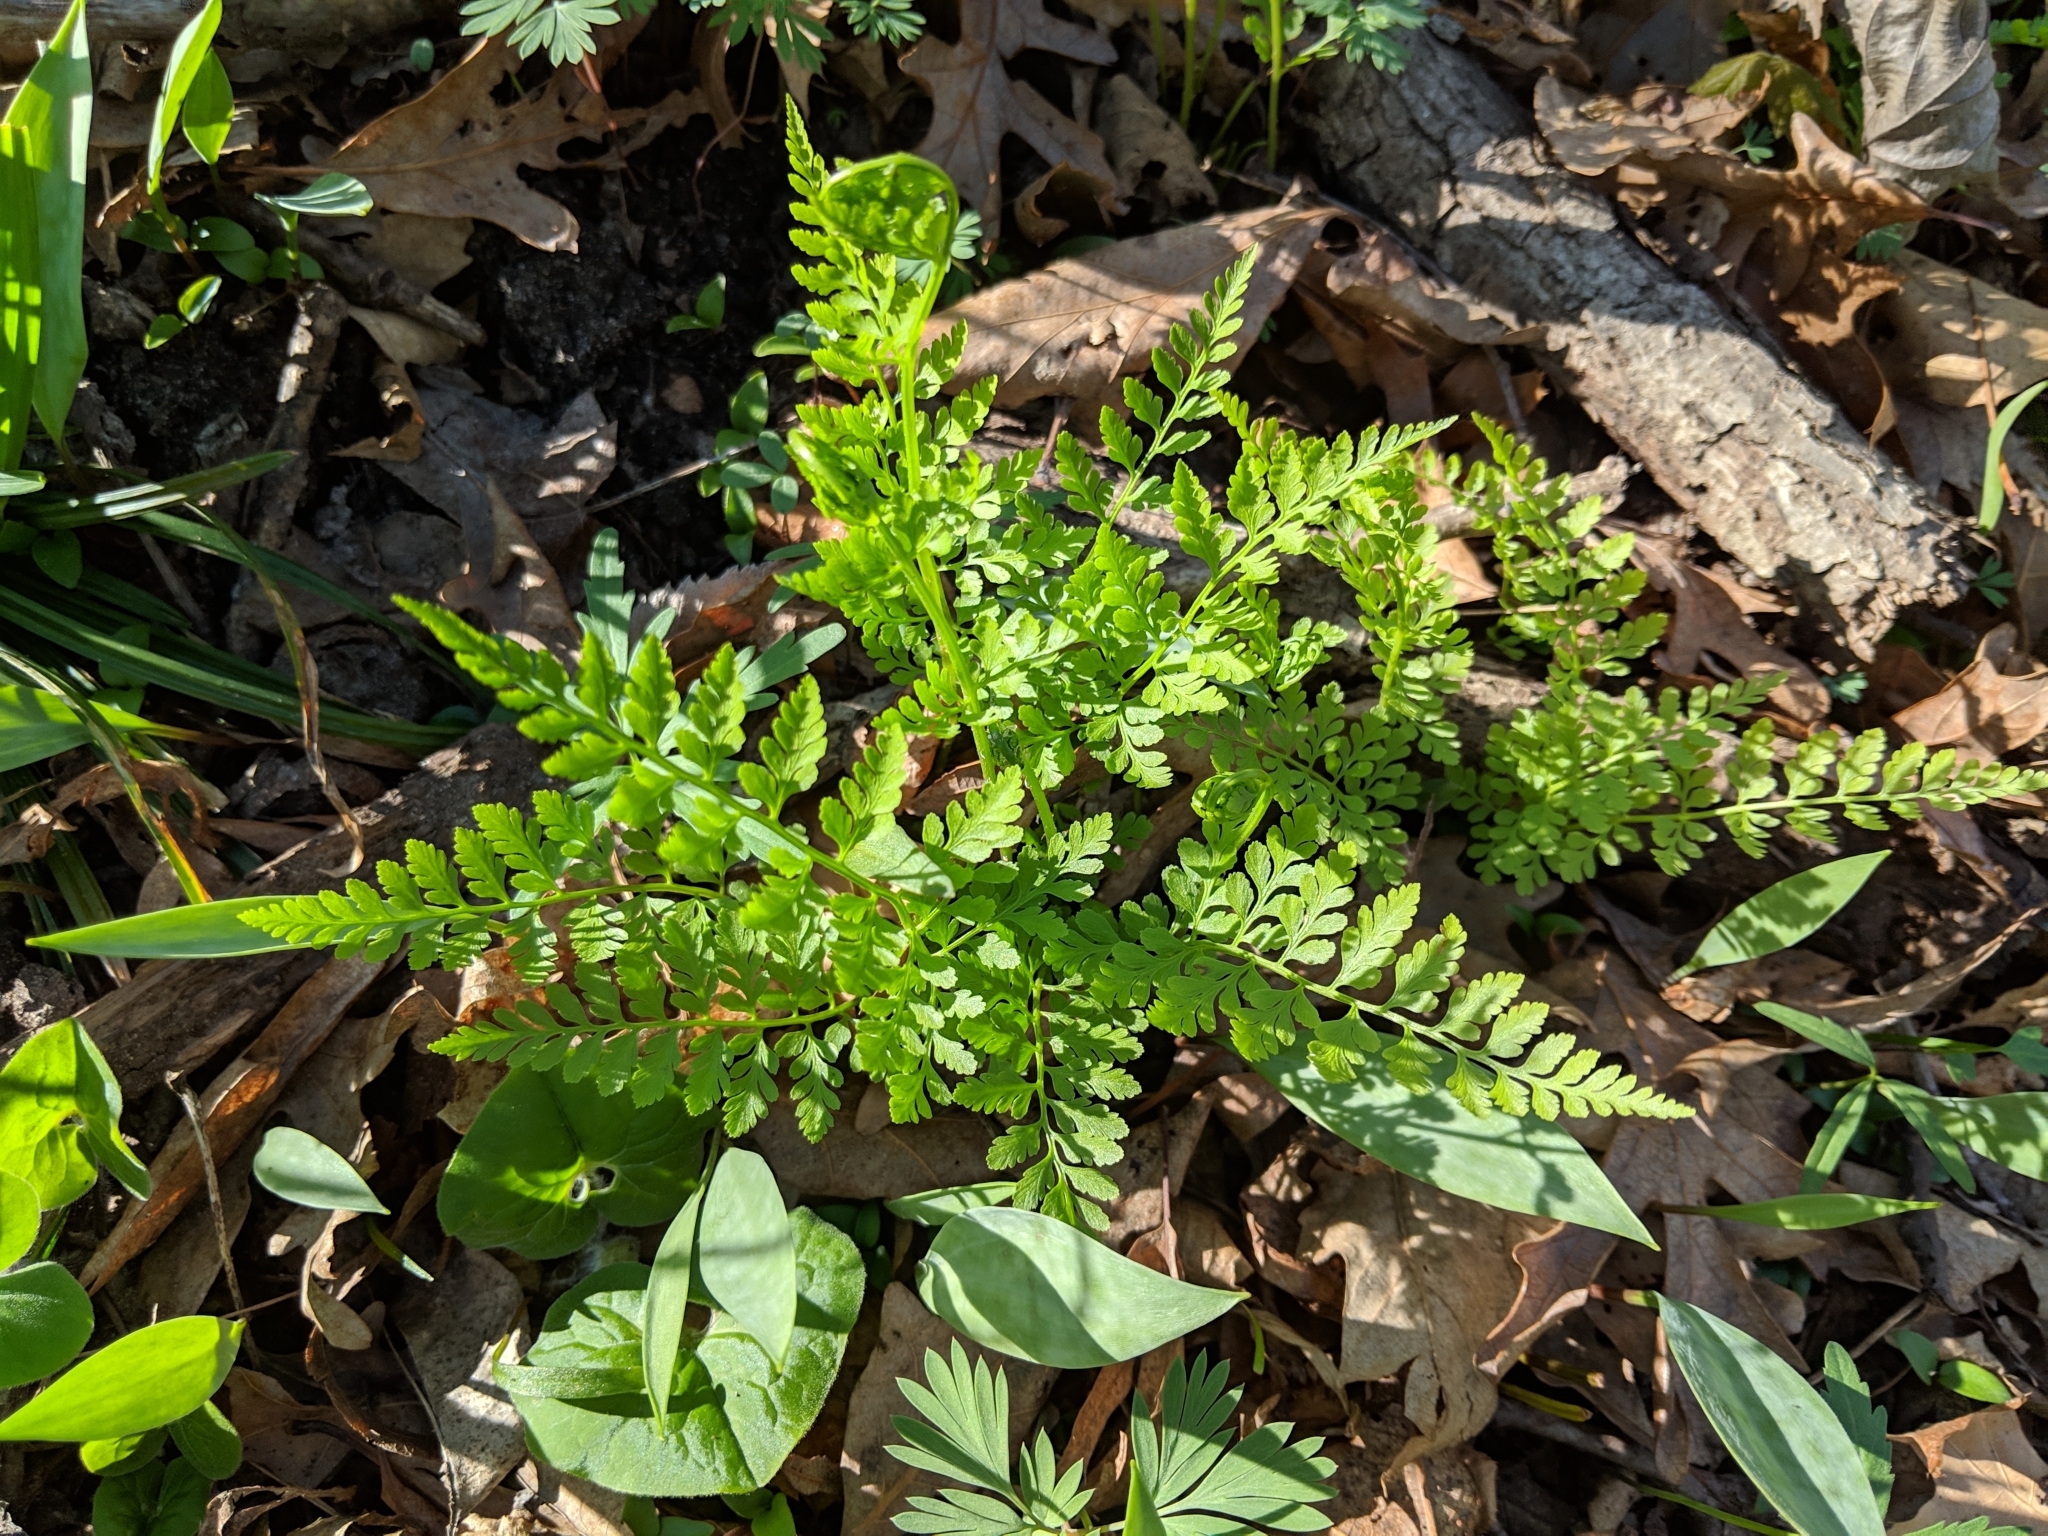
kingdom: Plantae
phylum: Tracheophyta
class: Polypodiopsida
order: Polypodiales
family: Cystopteridaceae
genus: Cystopteris
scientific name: Cystopteris protrusa
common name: Lowland brittle fern
